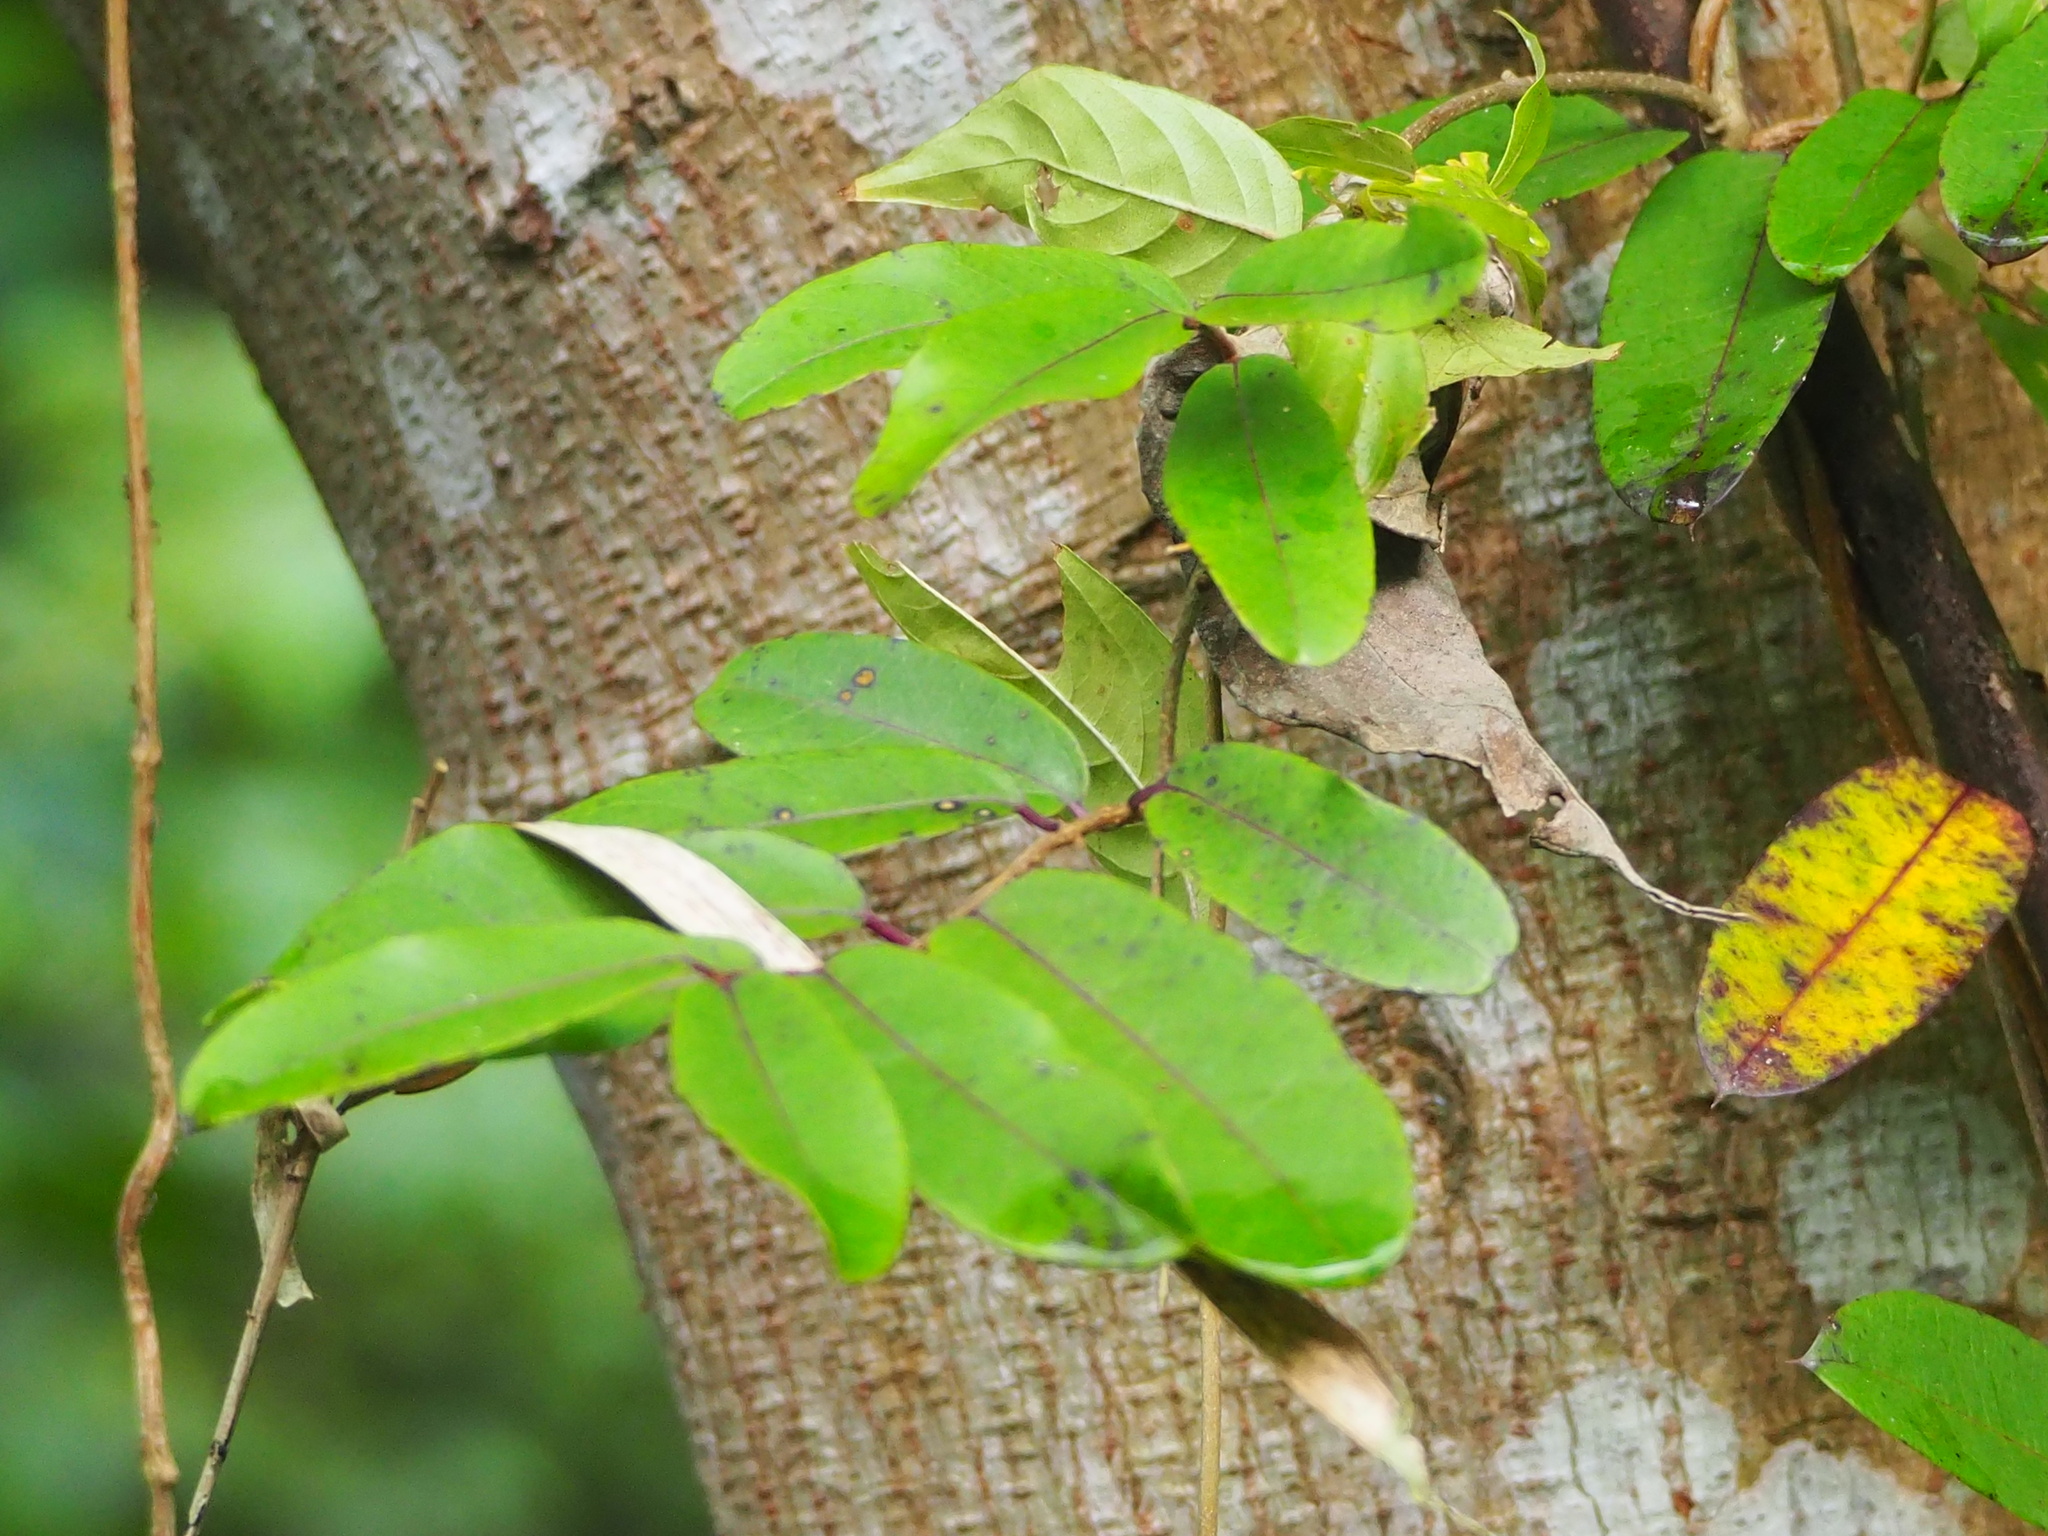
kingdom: Plantae
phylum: Tracheophyta
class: Magnoliopsida
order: Gentianales
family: Apocynaceae
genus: Cryptolepis
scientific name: Cryptolepis sinensis
